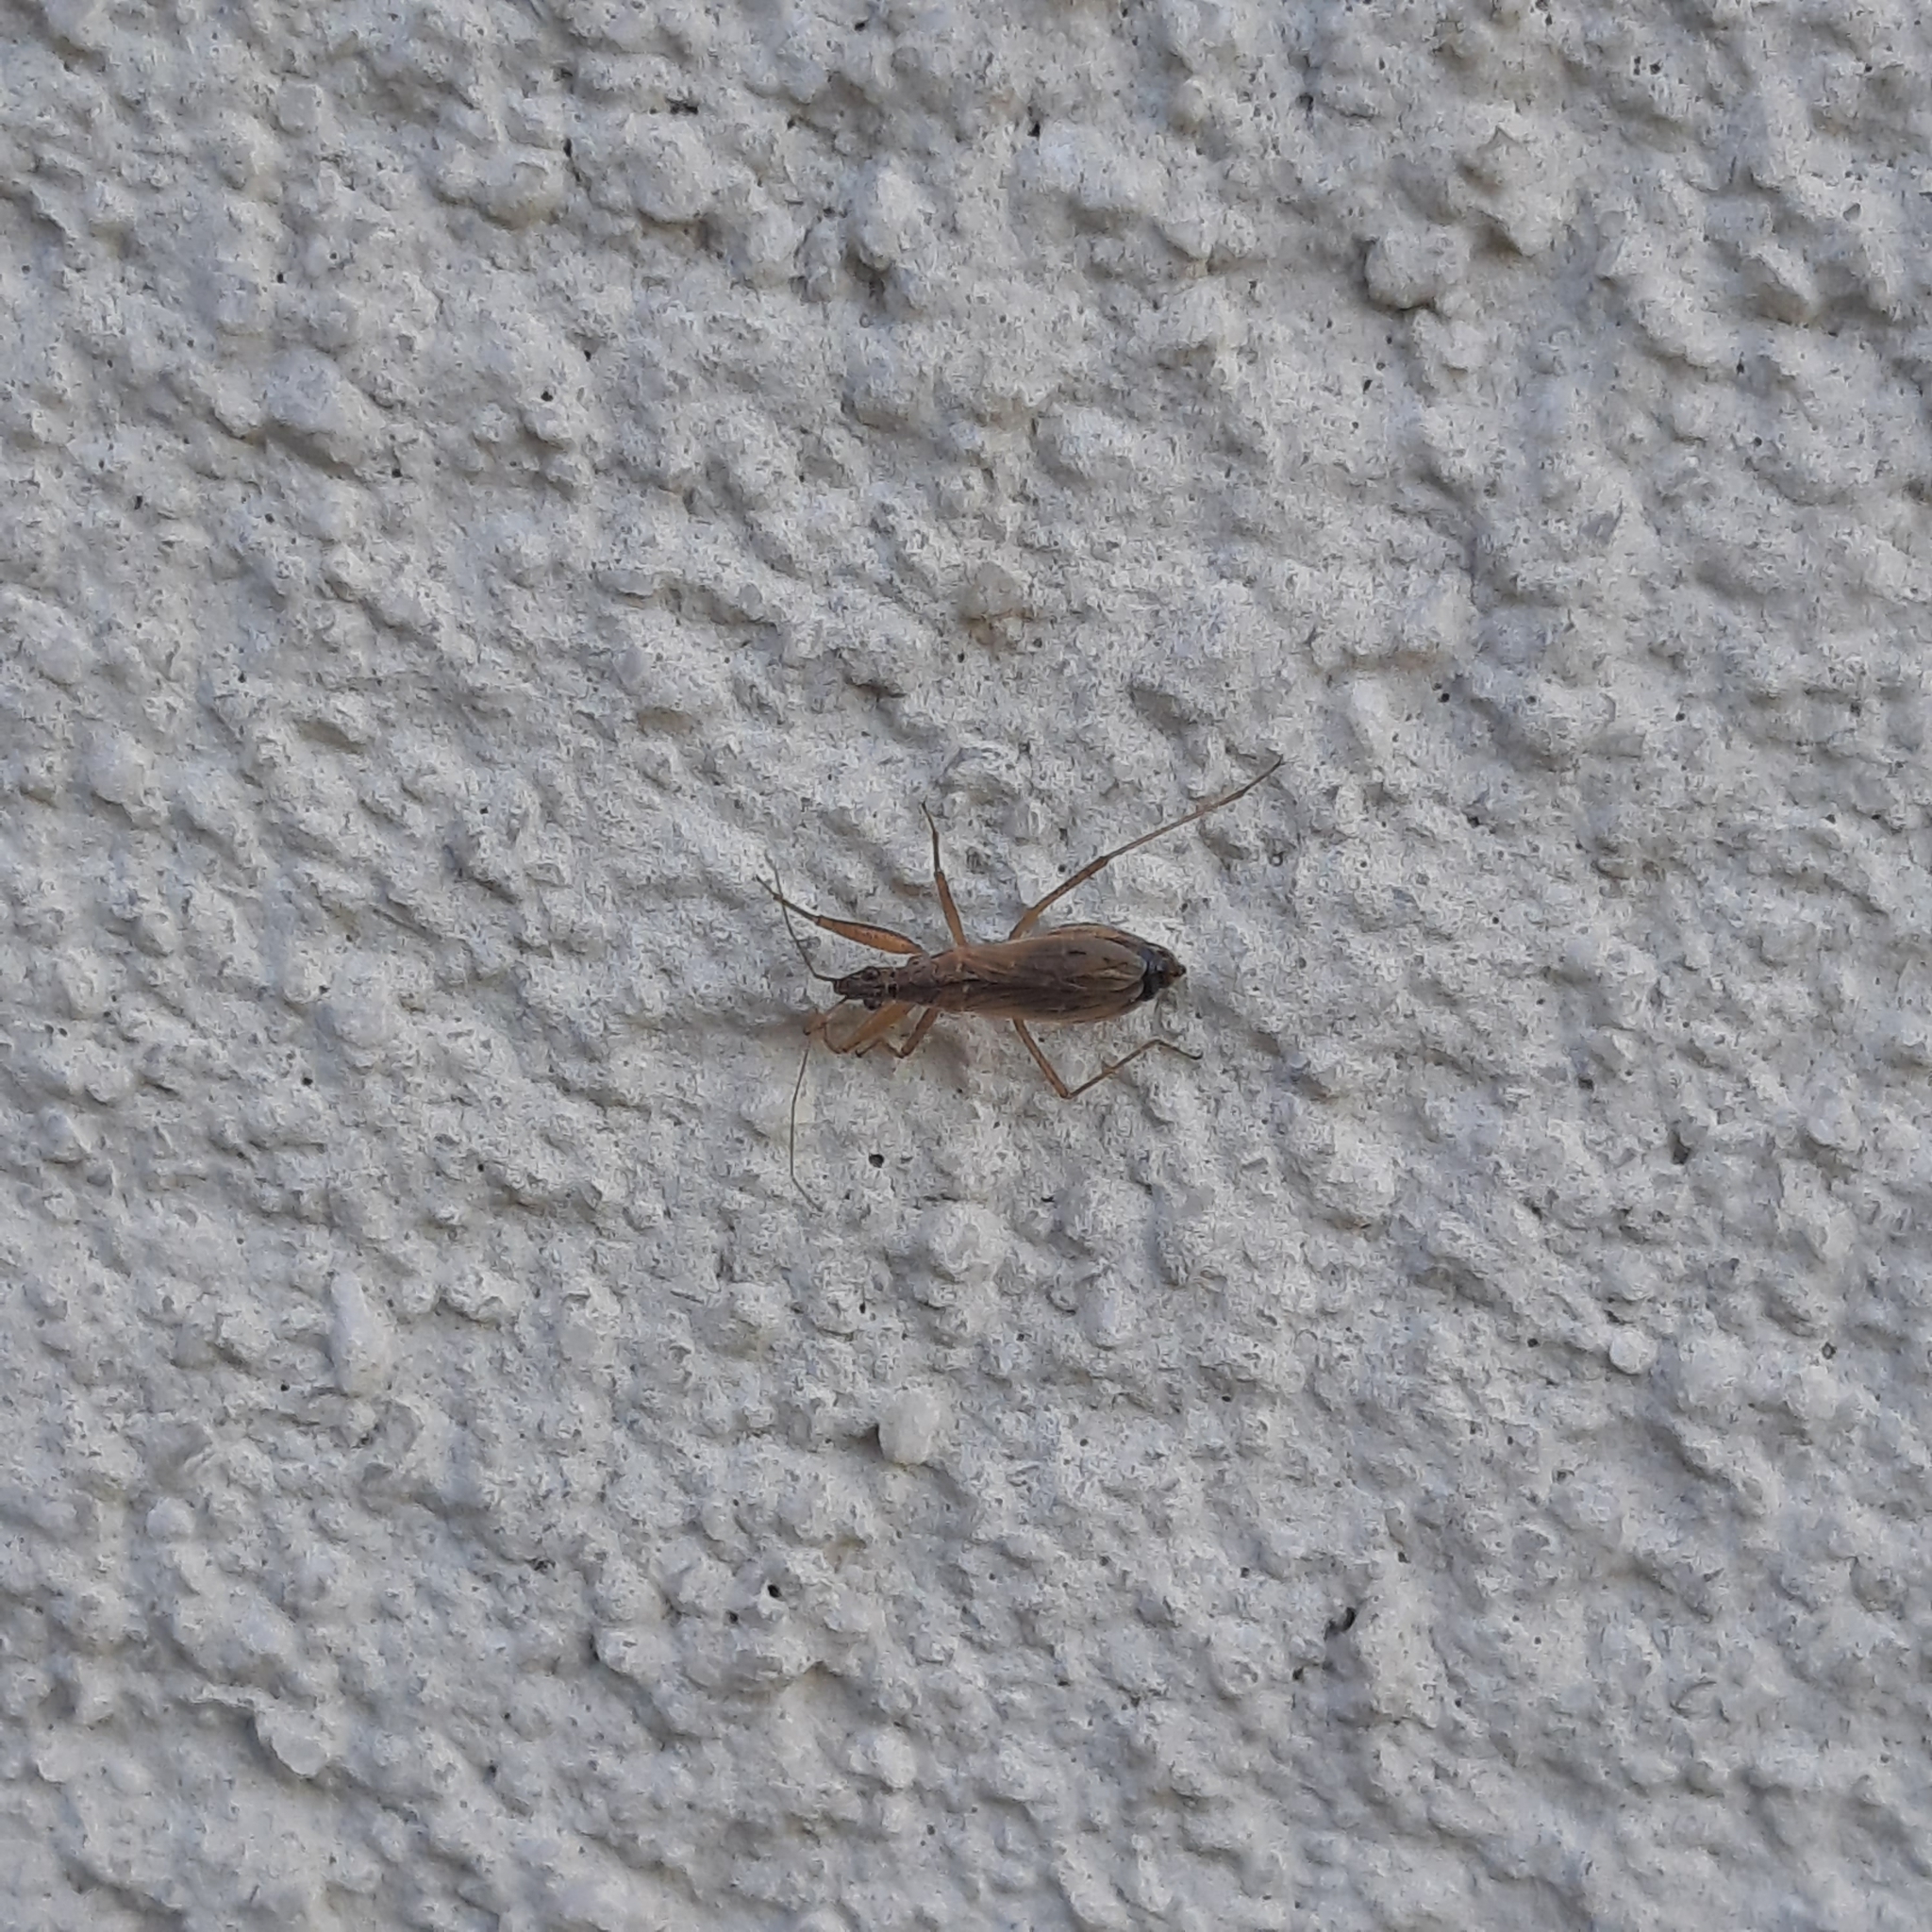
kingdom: Animalia
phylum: Arthropoda
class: Insecta
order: Hemiptera
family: Nabidae
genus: Nabis
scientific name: Nabis
